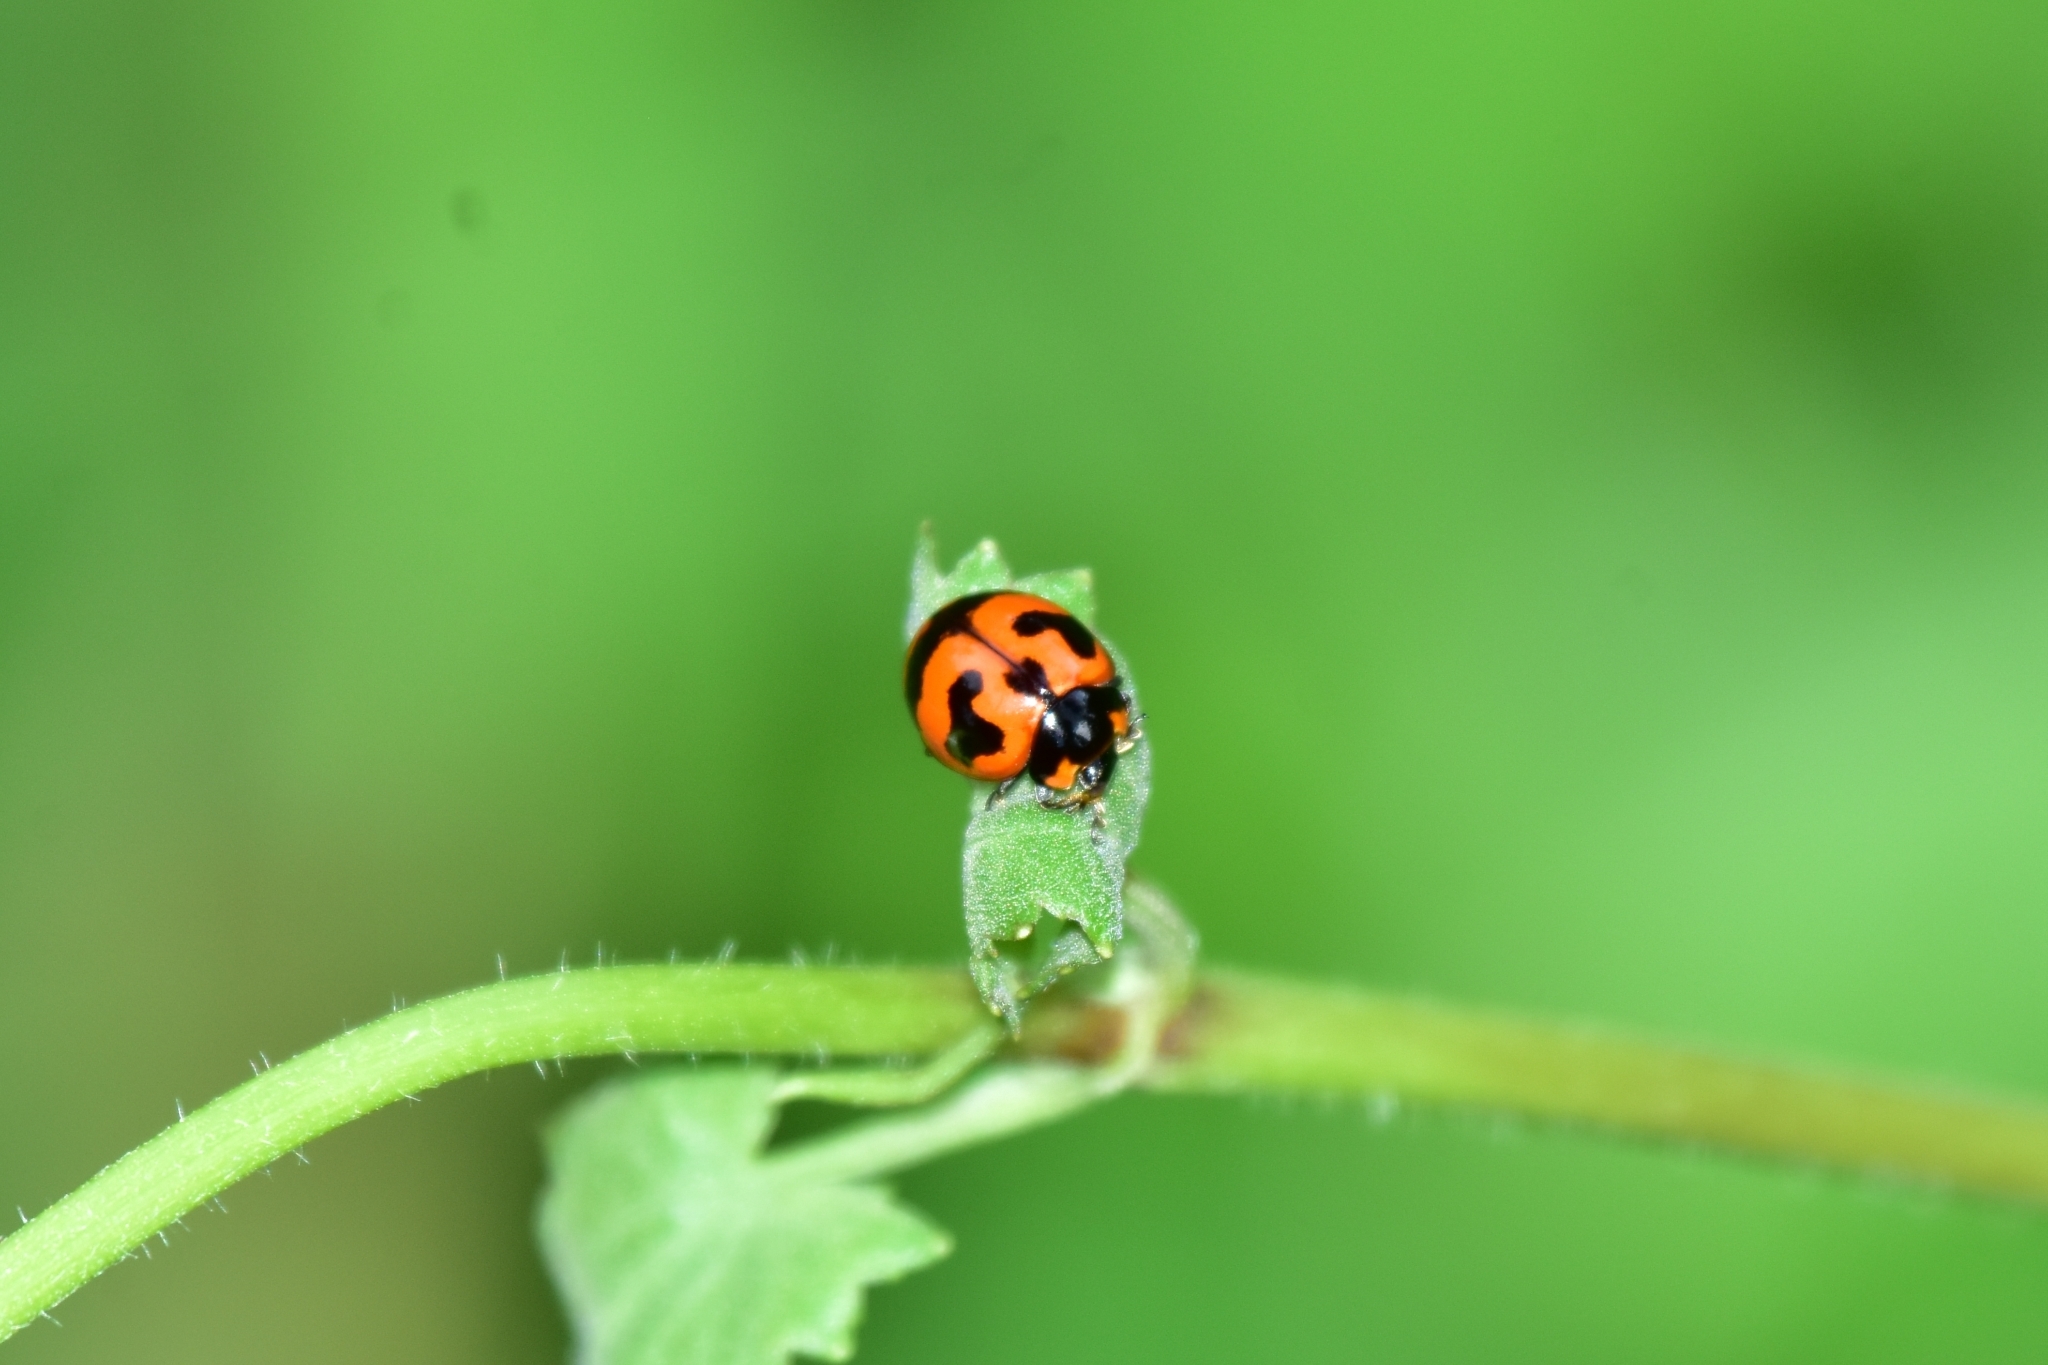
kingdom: Animalia
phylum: Arthropoda
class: Insecta
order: Coleoptera
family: Coccinellidae
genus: Coccinella
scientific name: Coccinella transversalis
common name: Transverse lady beetle
